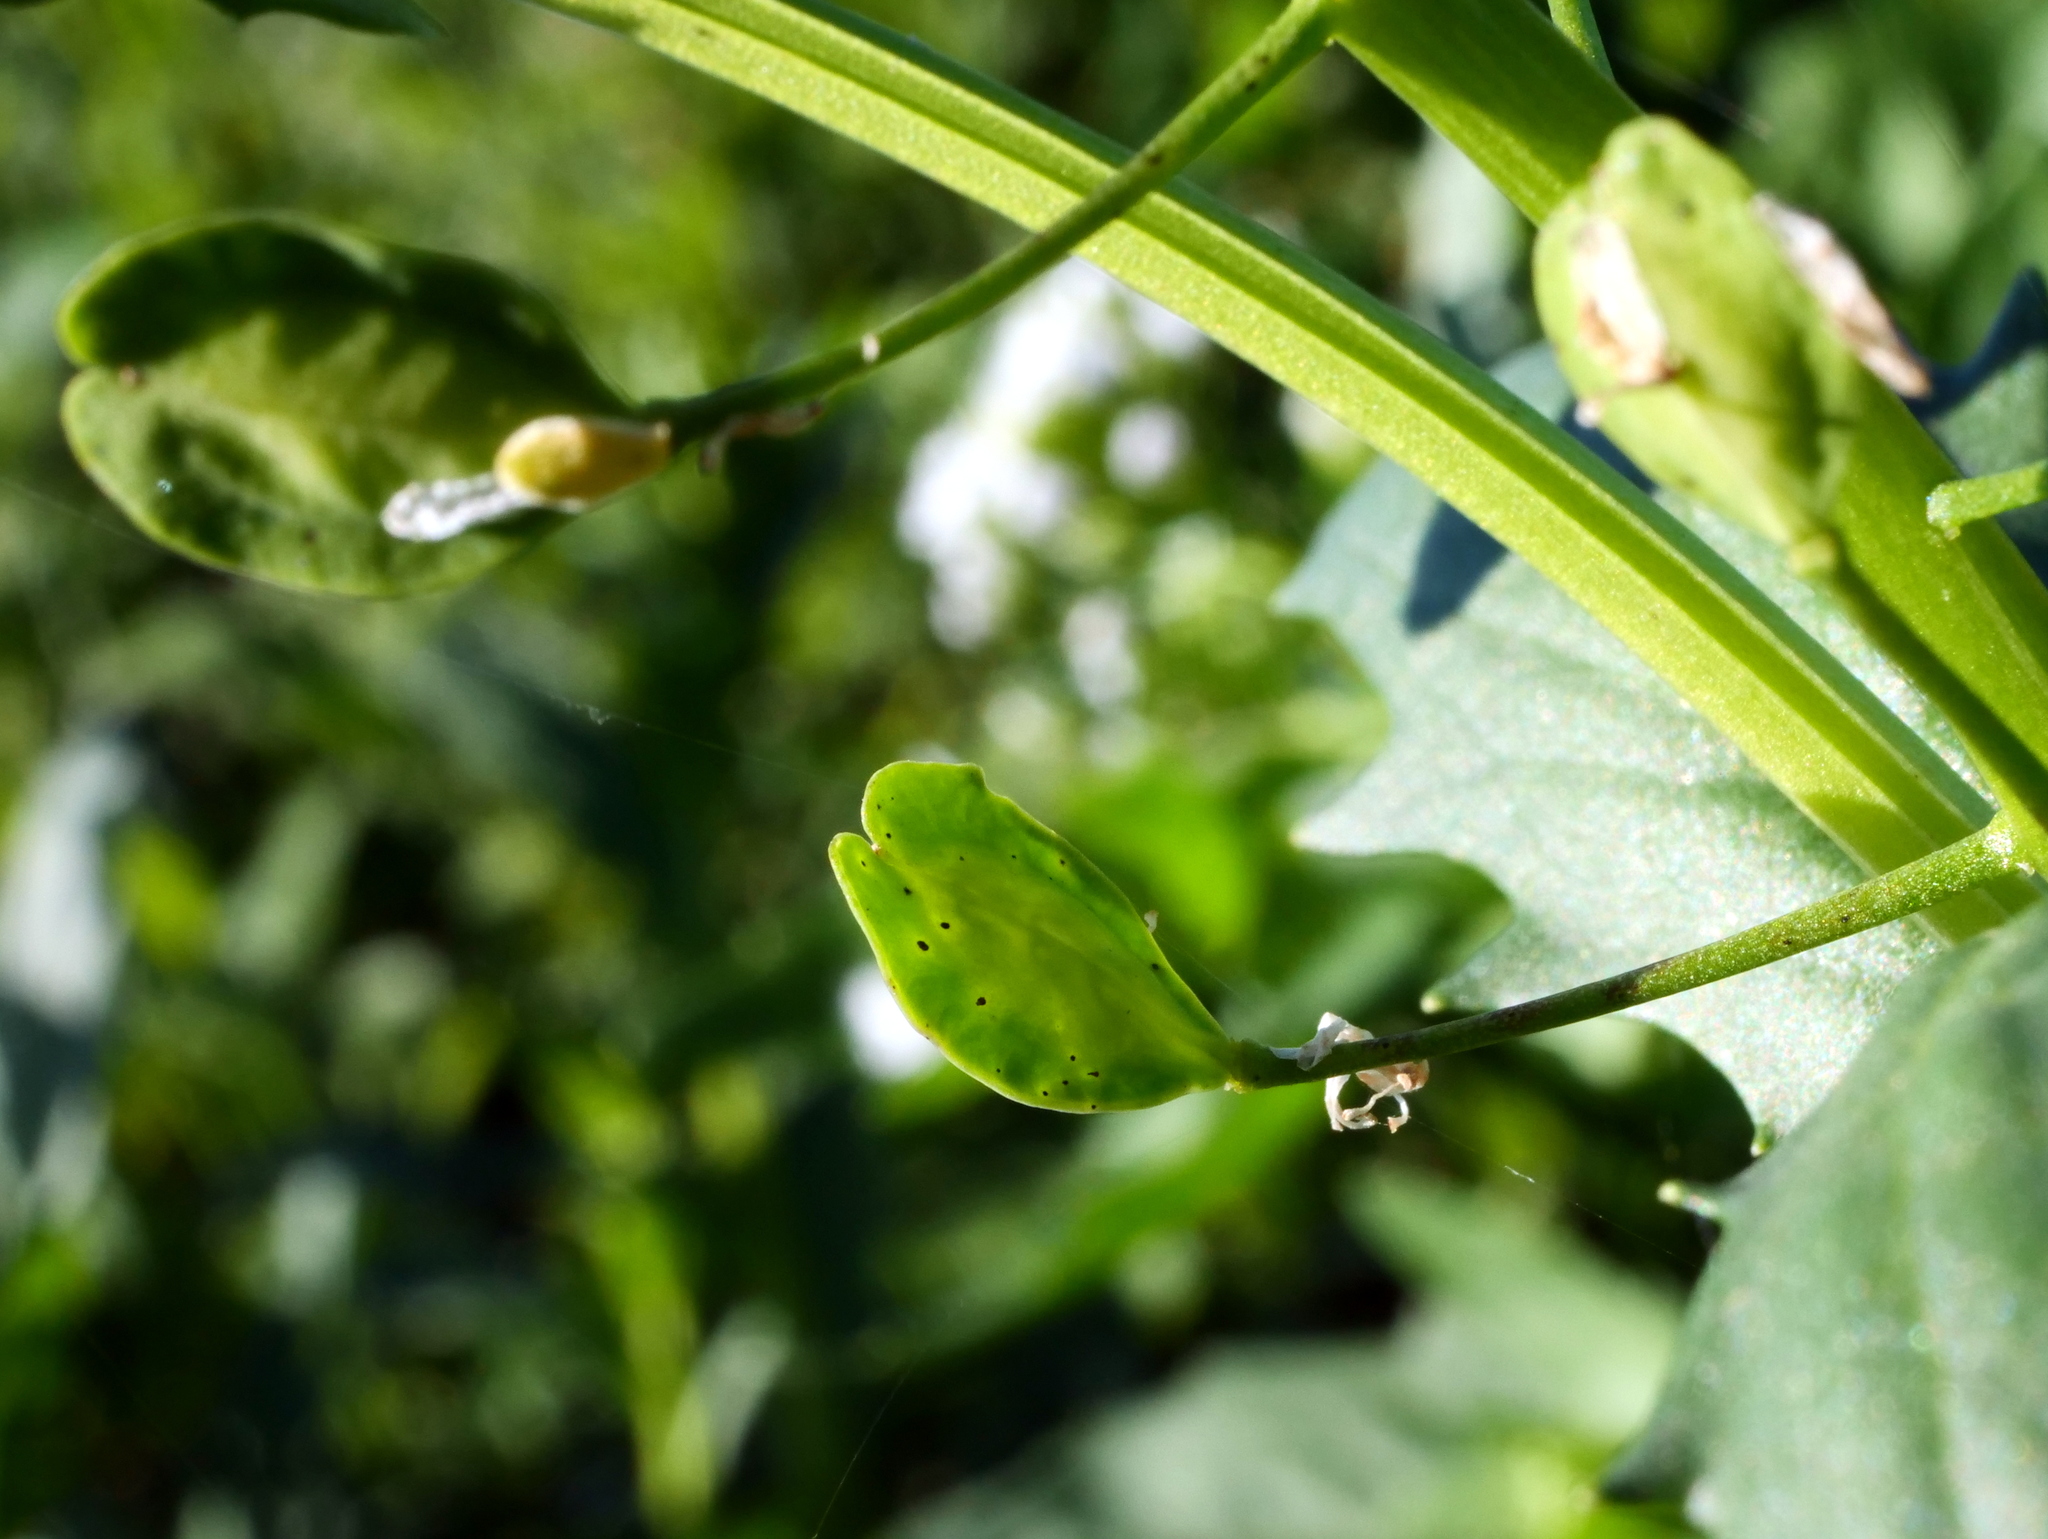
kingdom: Plantae
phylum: Tracheophyta
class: Magnoliopsida
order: Brassicales
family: Brassicaceae
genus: Thlaspi
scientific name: Thlaspi arvense
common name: Field pennycress
